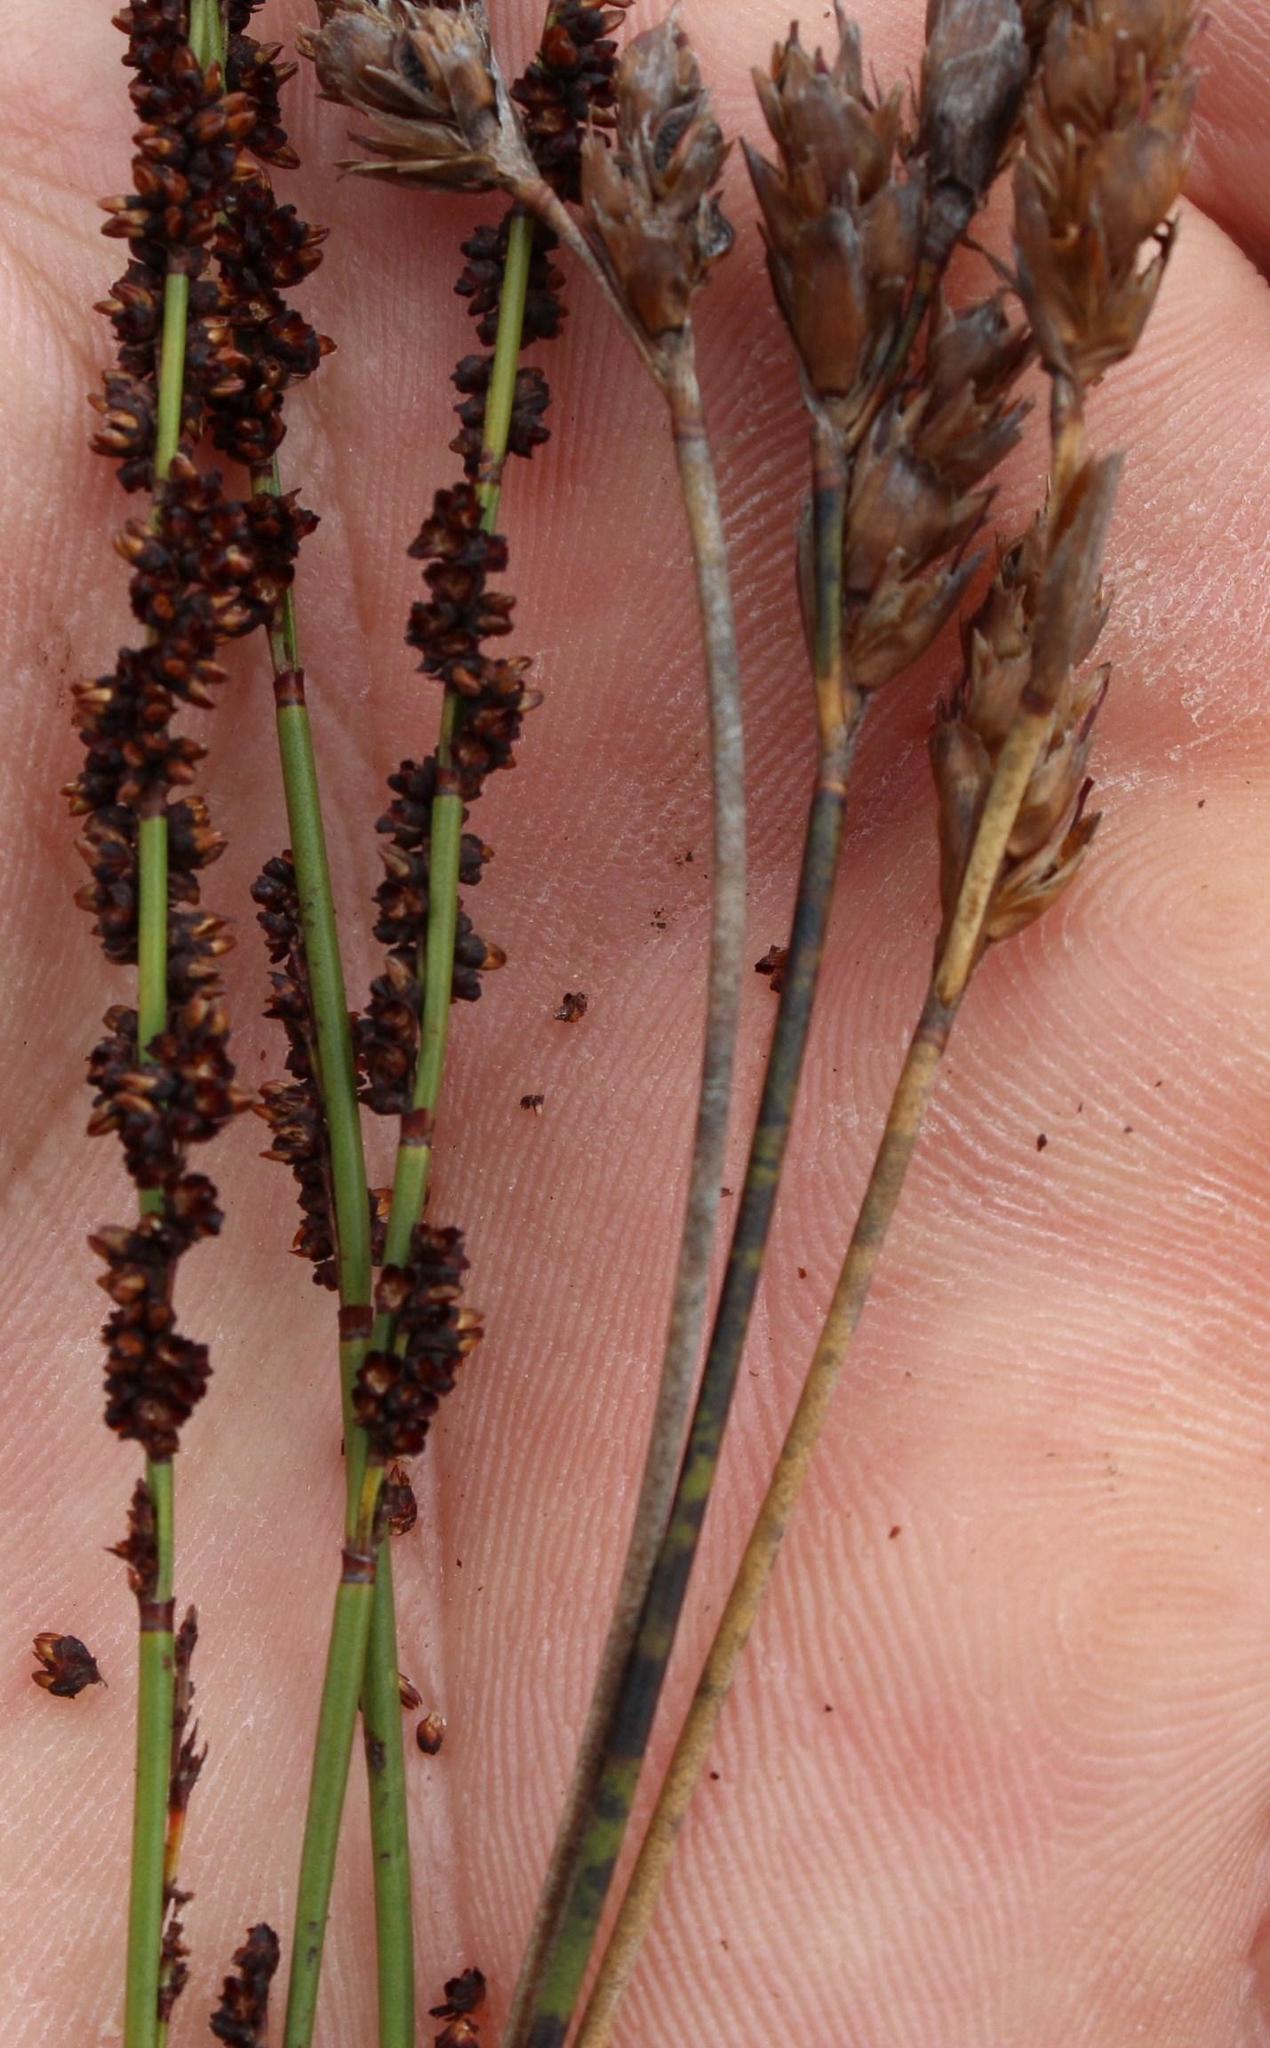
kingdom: Plantae
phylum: Tracheophyta
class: Liliopsida
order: Poales
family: Restionaceae
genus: Elegia
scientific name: Elegia nuda
